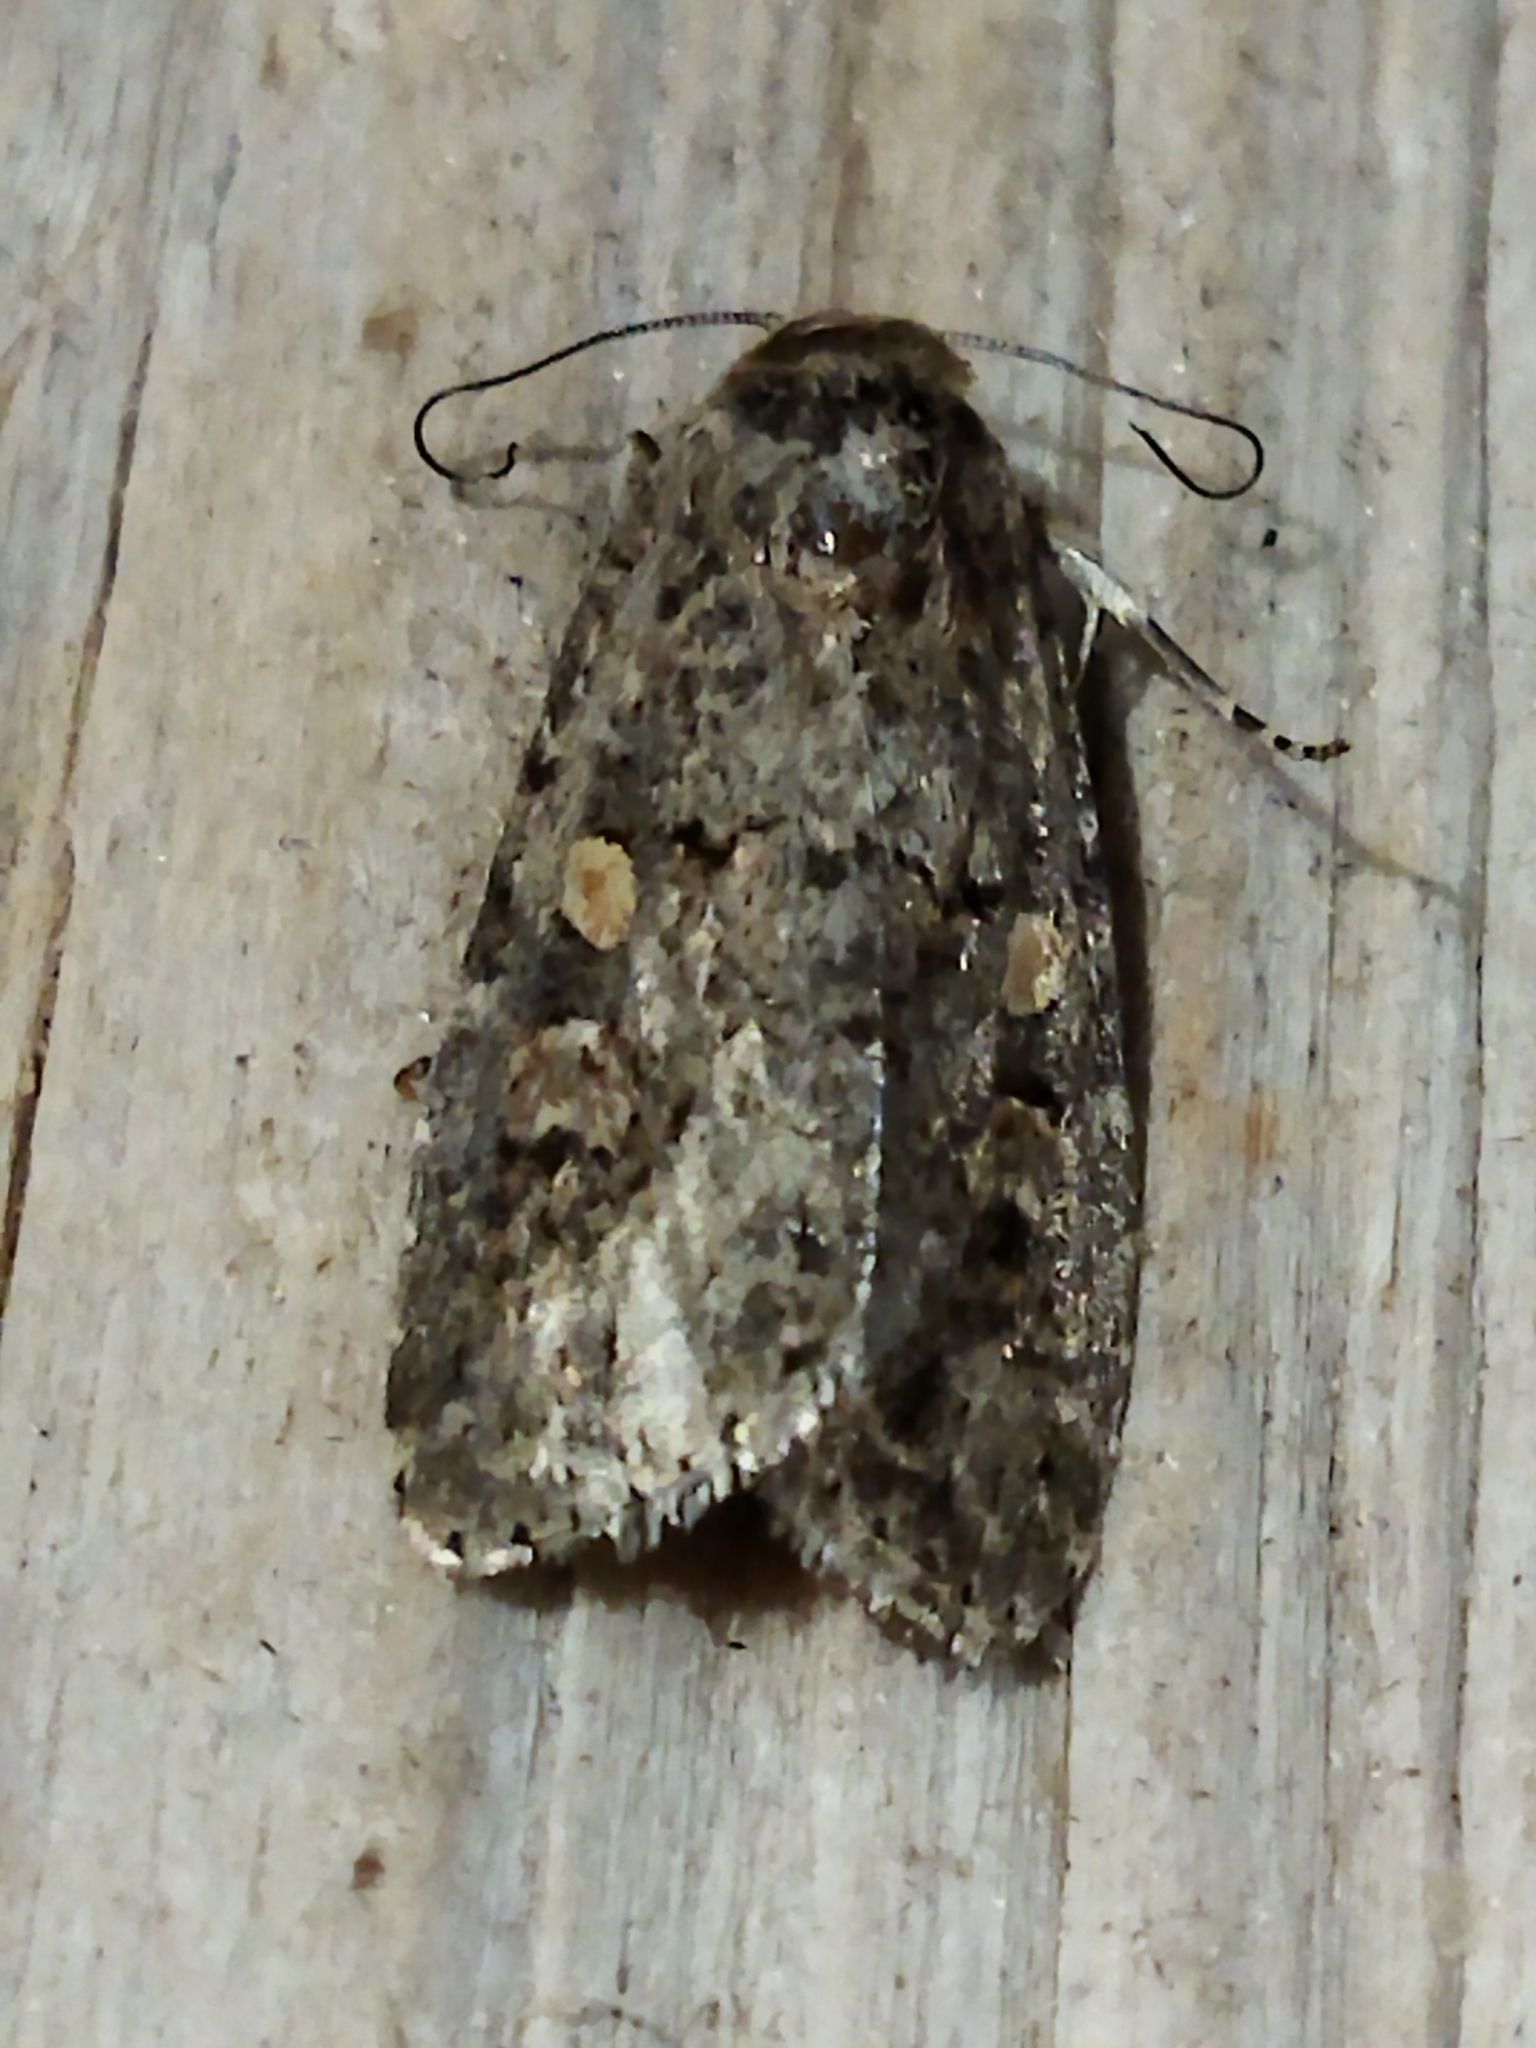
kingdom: Animalia
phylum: Arthropoda
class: Insecta
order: Lepidoptera
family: Noctuidae
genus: Spodoptera
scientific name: Spodoptera exigua
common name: Beet armyworm
